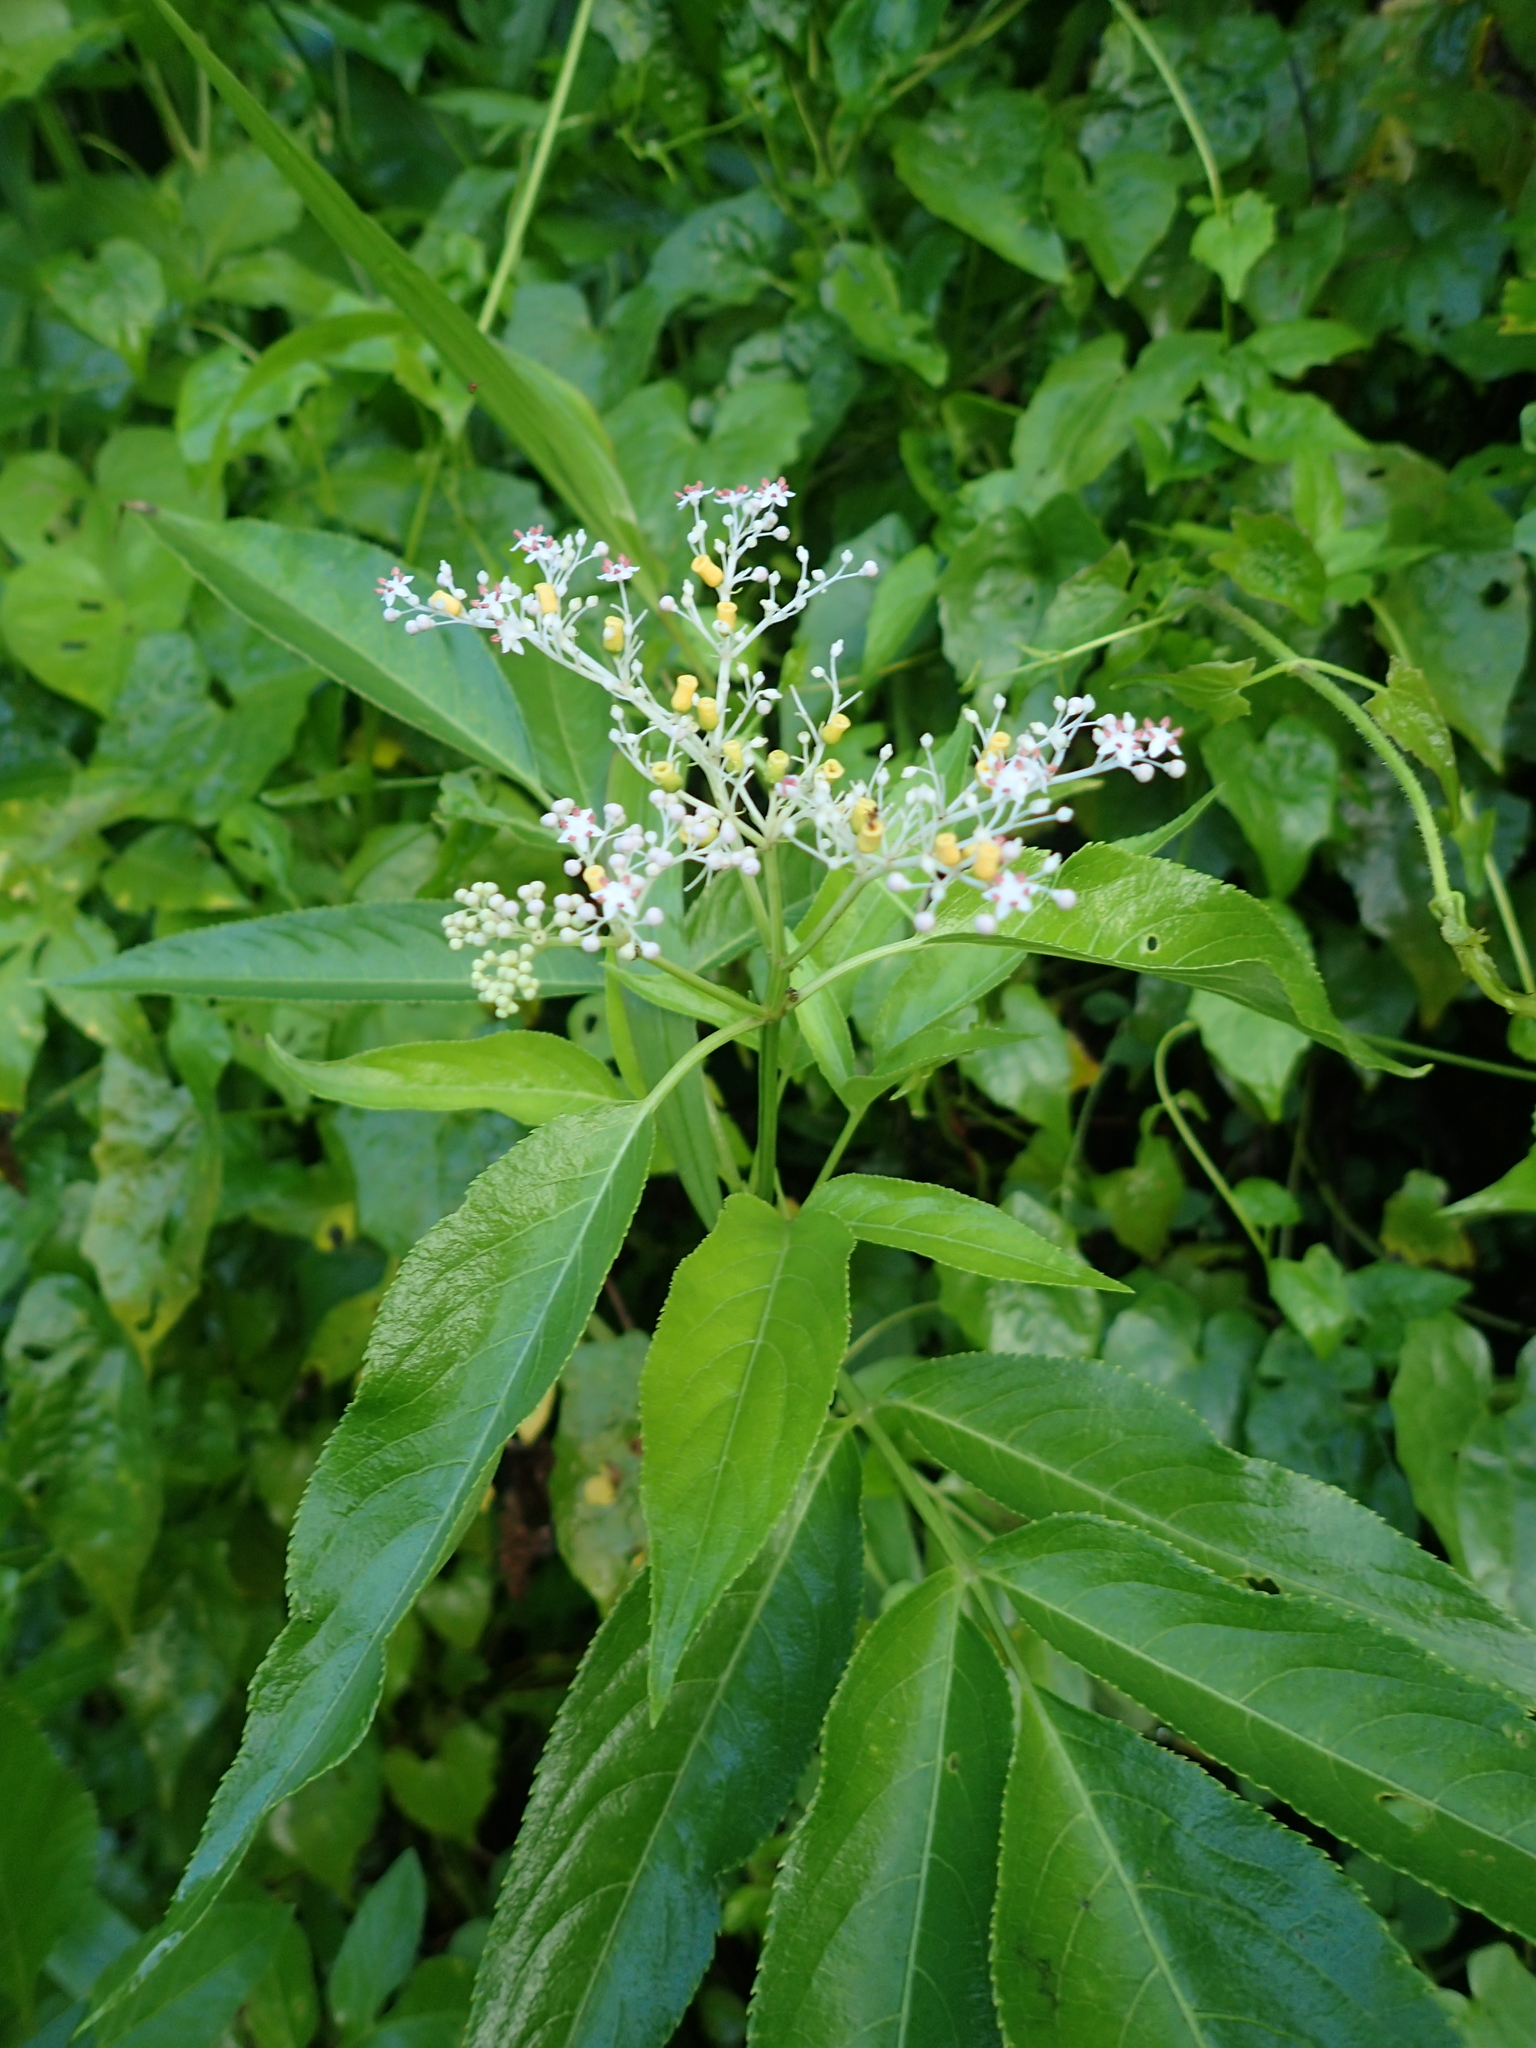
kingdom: Plantae
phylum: Tracheophyta
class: Magnoliopsida
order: Dipsacales
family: Viburnaceae
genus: Sambucus
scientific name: Sambucus javanica
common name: Chinese elder
